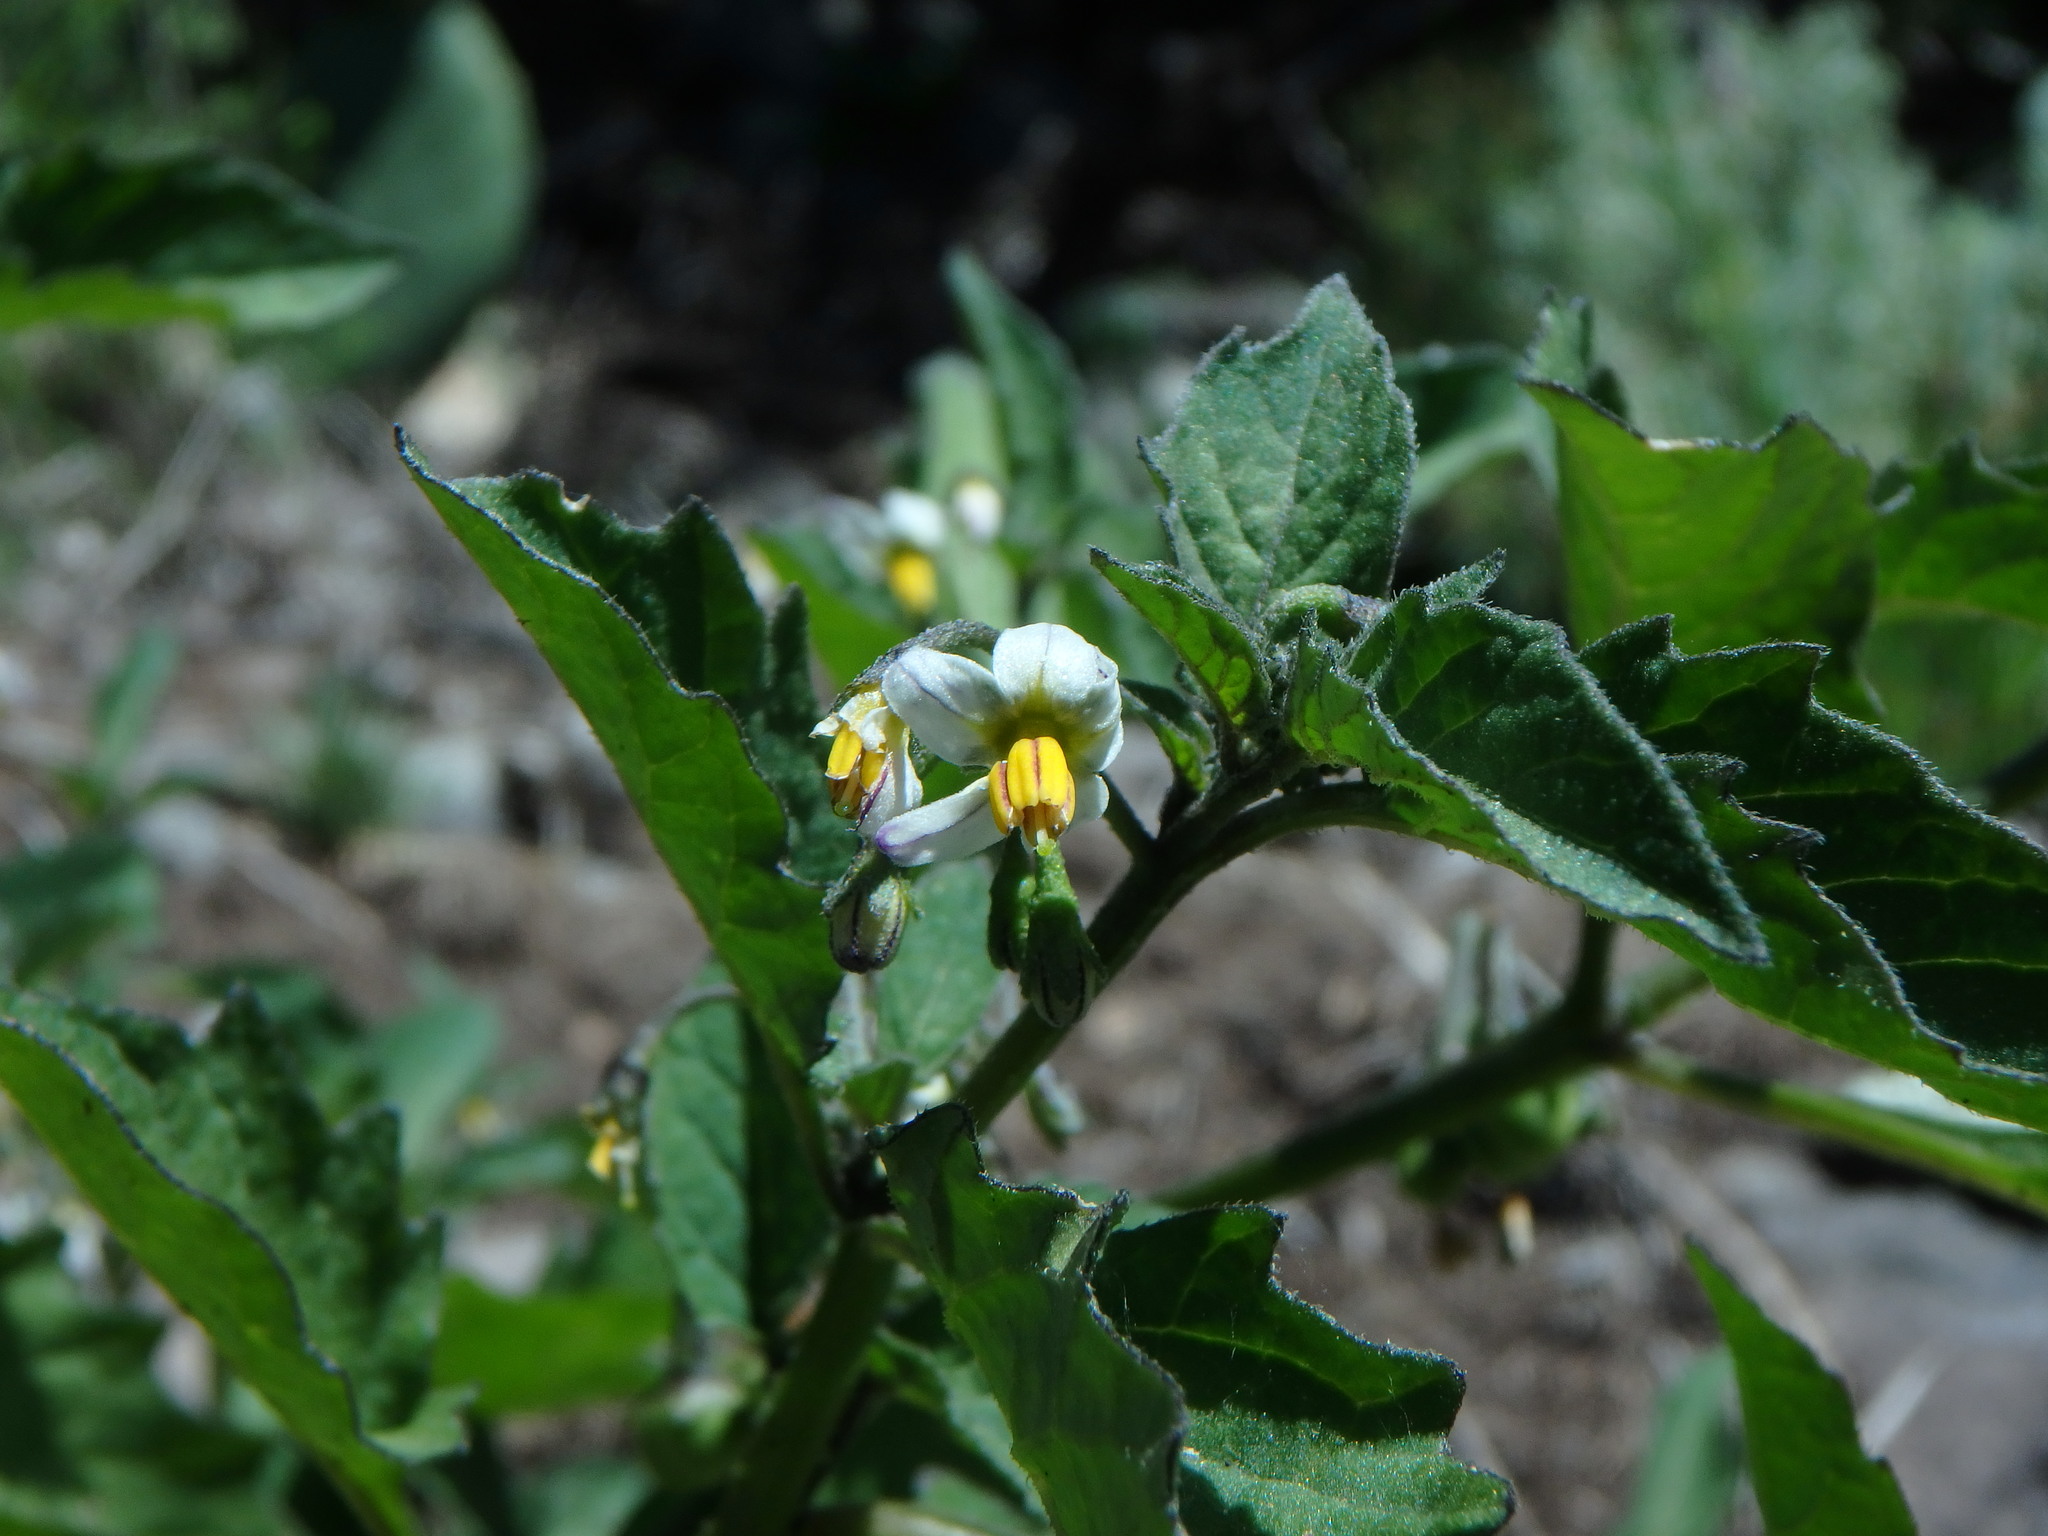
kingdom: Plantae
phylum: Tracheophyta
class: Magnoliopsida
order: Solanales
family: Solanaceae
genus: Solanum
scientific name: Solanum villosum
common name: Red nightshade
